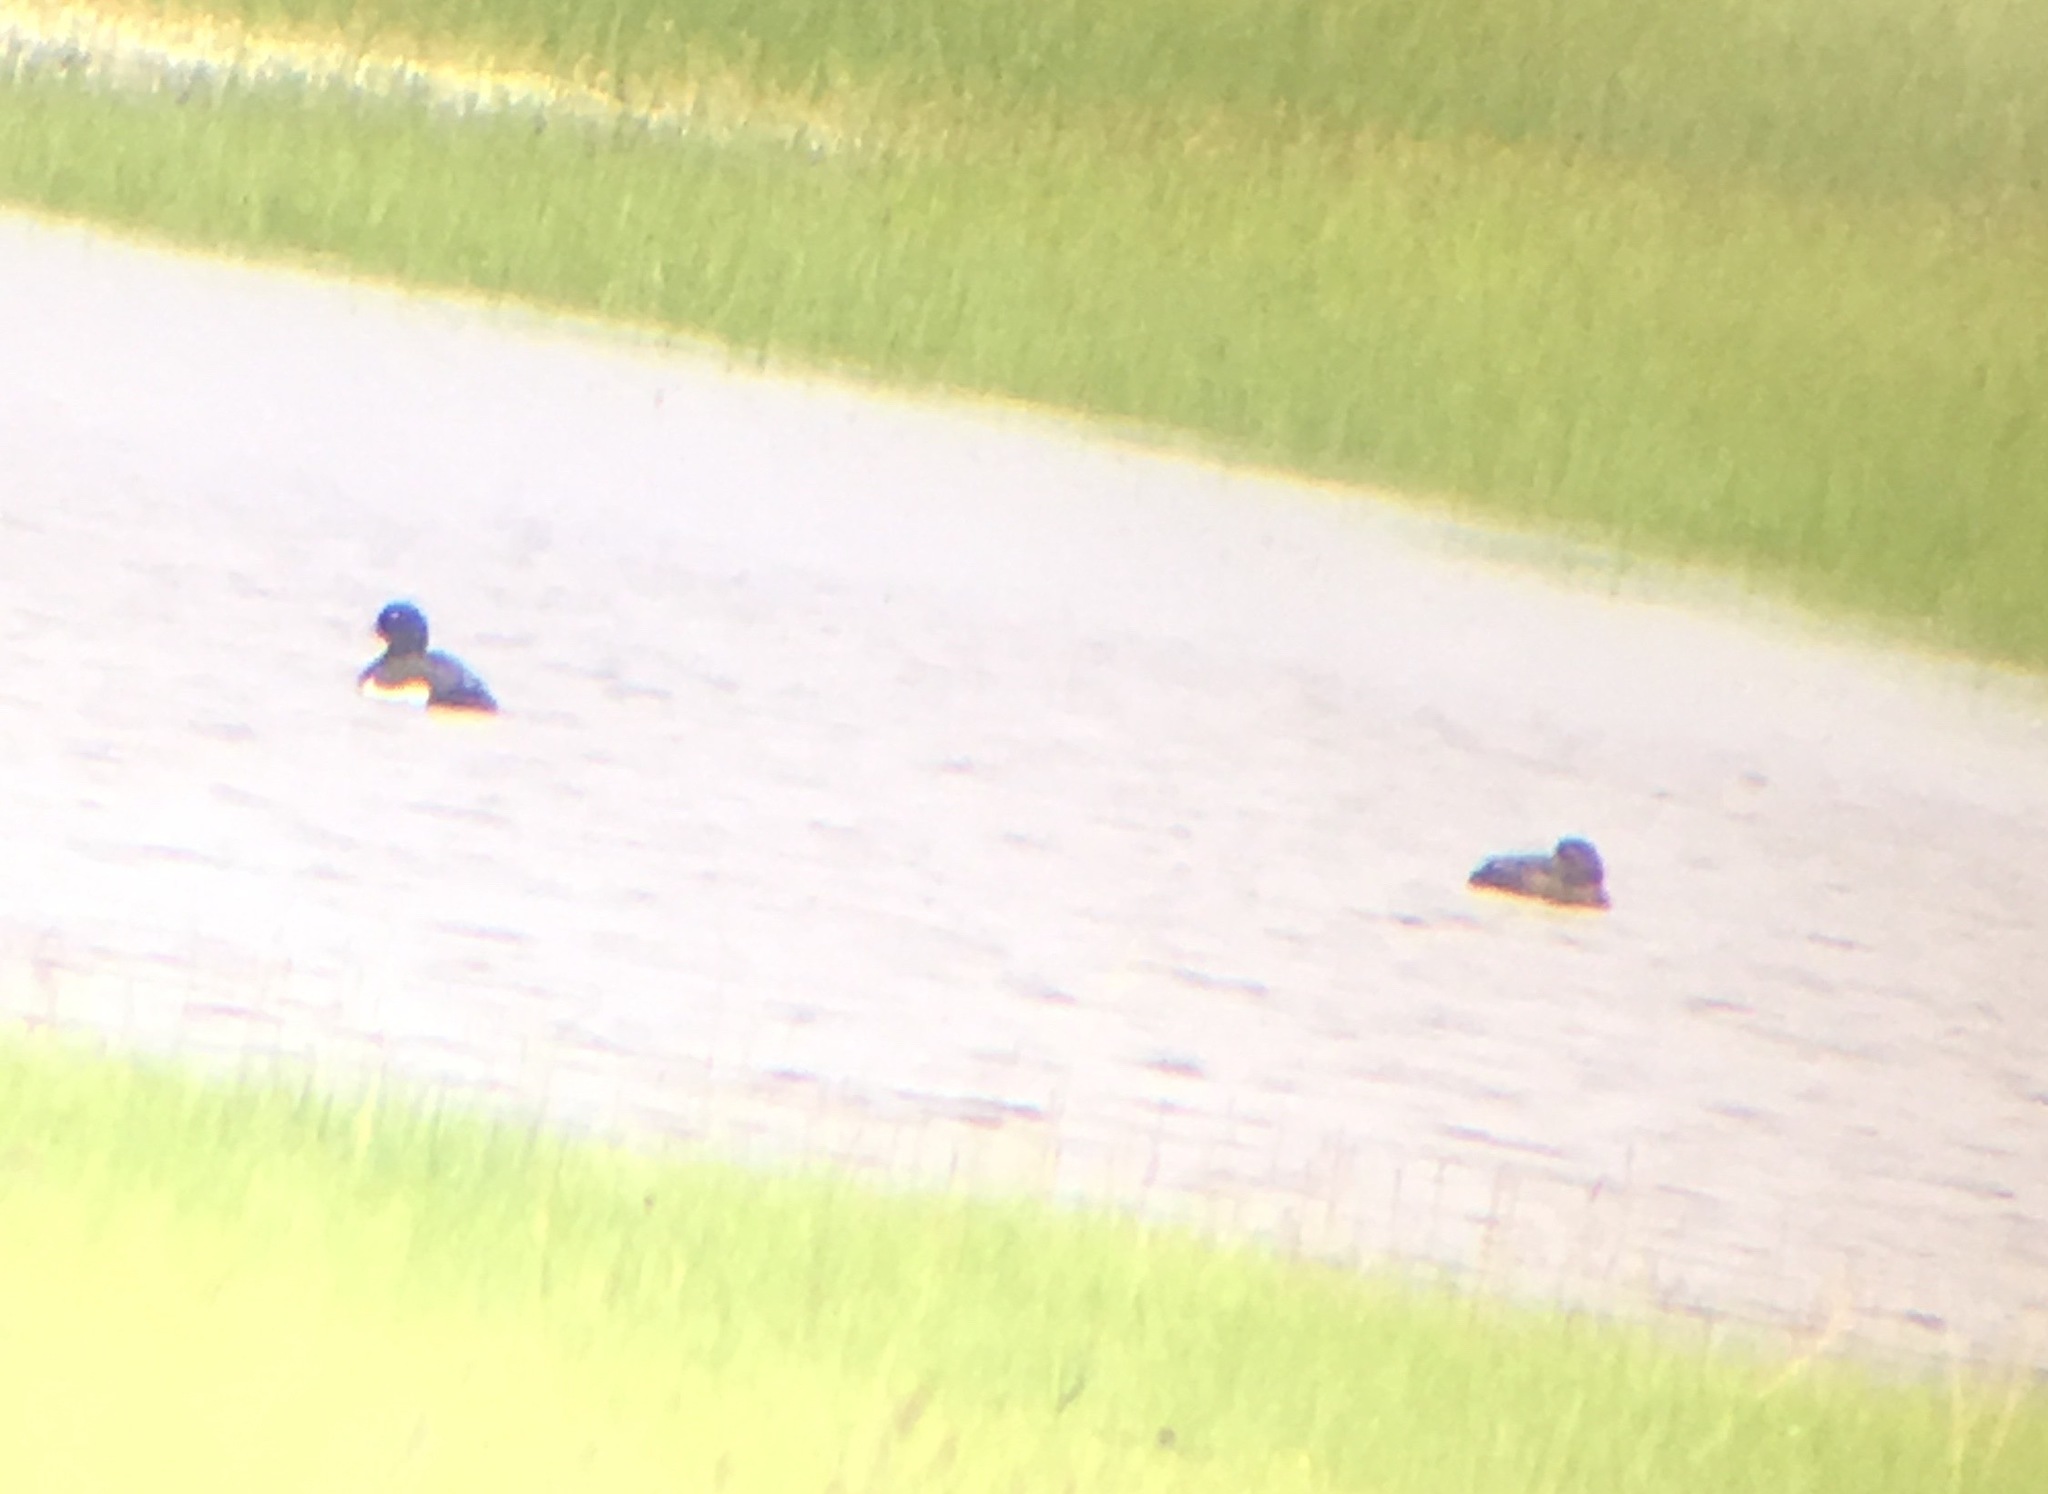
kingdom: Animalia
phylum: Chordata
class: Aves
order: Anseriformes
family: Anatidae
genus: Aythya
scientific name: Aythya fuligula
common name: Tufted duck
